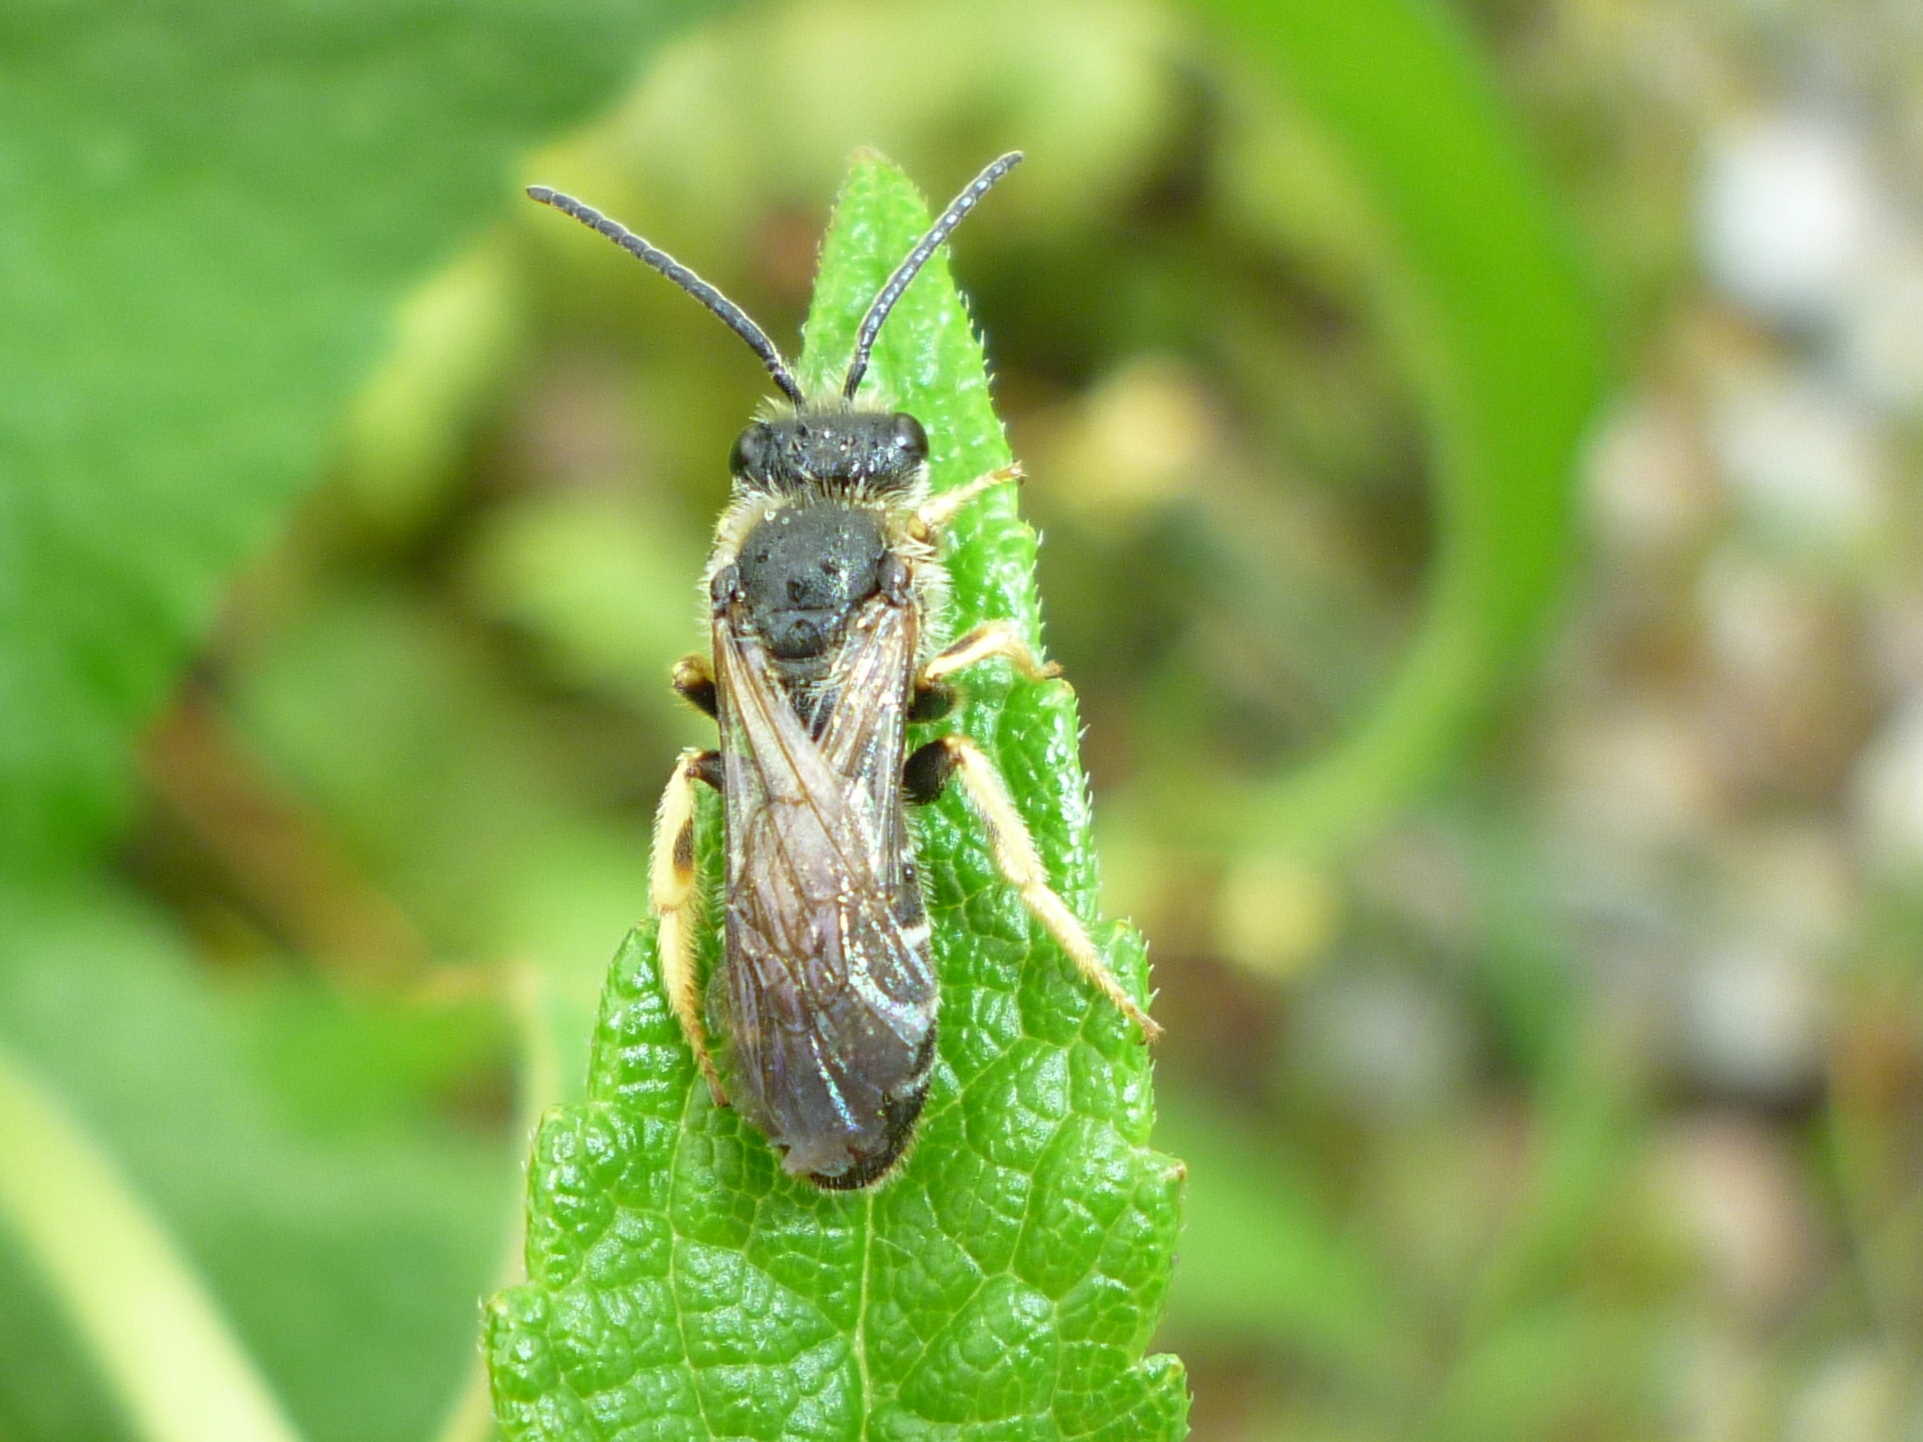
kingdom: Animalia
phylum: Arthropoda
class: Insecta
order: Hymenoptera
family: Halictidae
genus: Halictus
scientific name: Halictus rubicundus
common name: Orange-legged furrow bee
